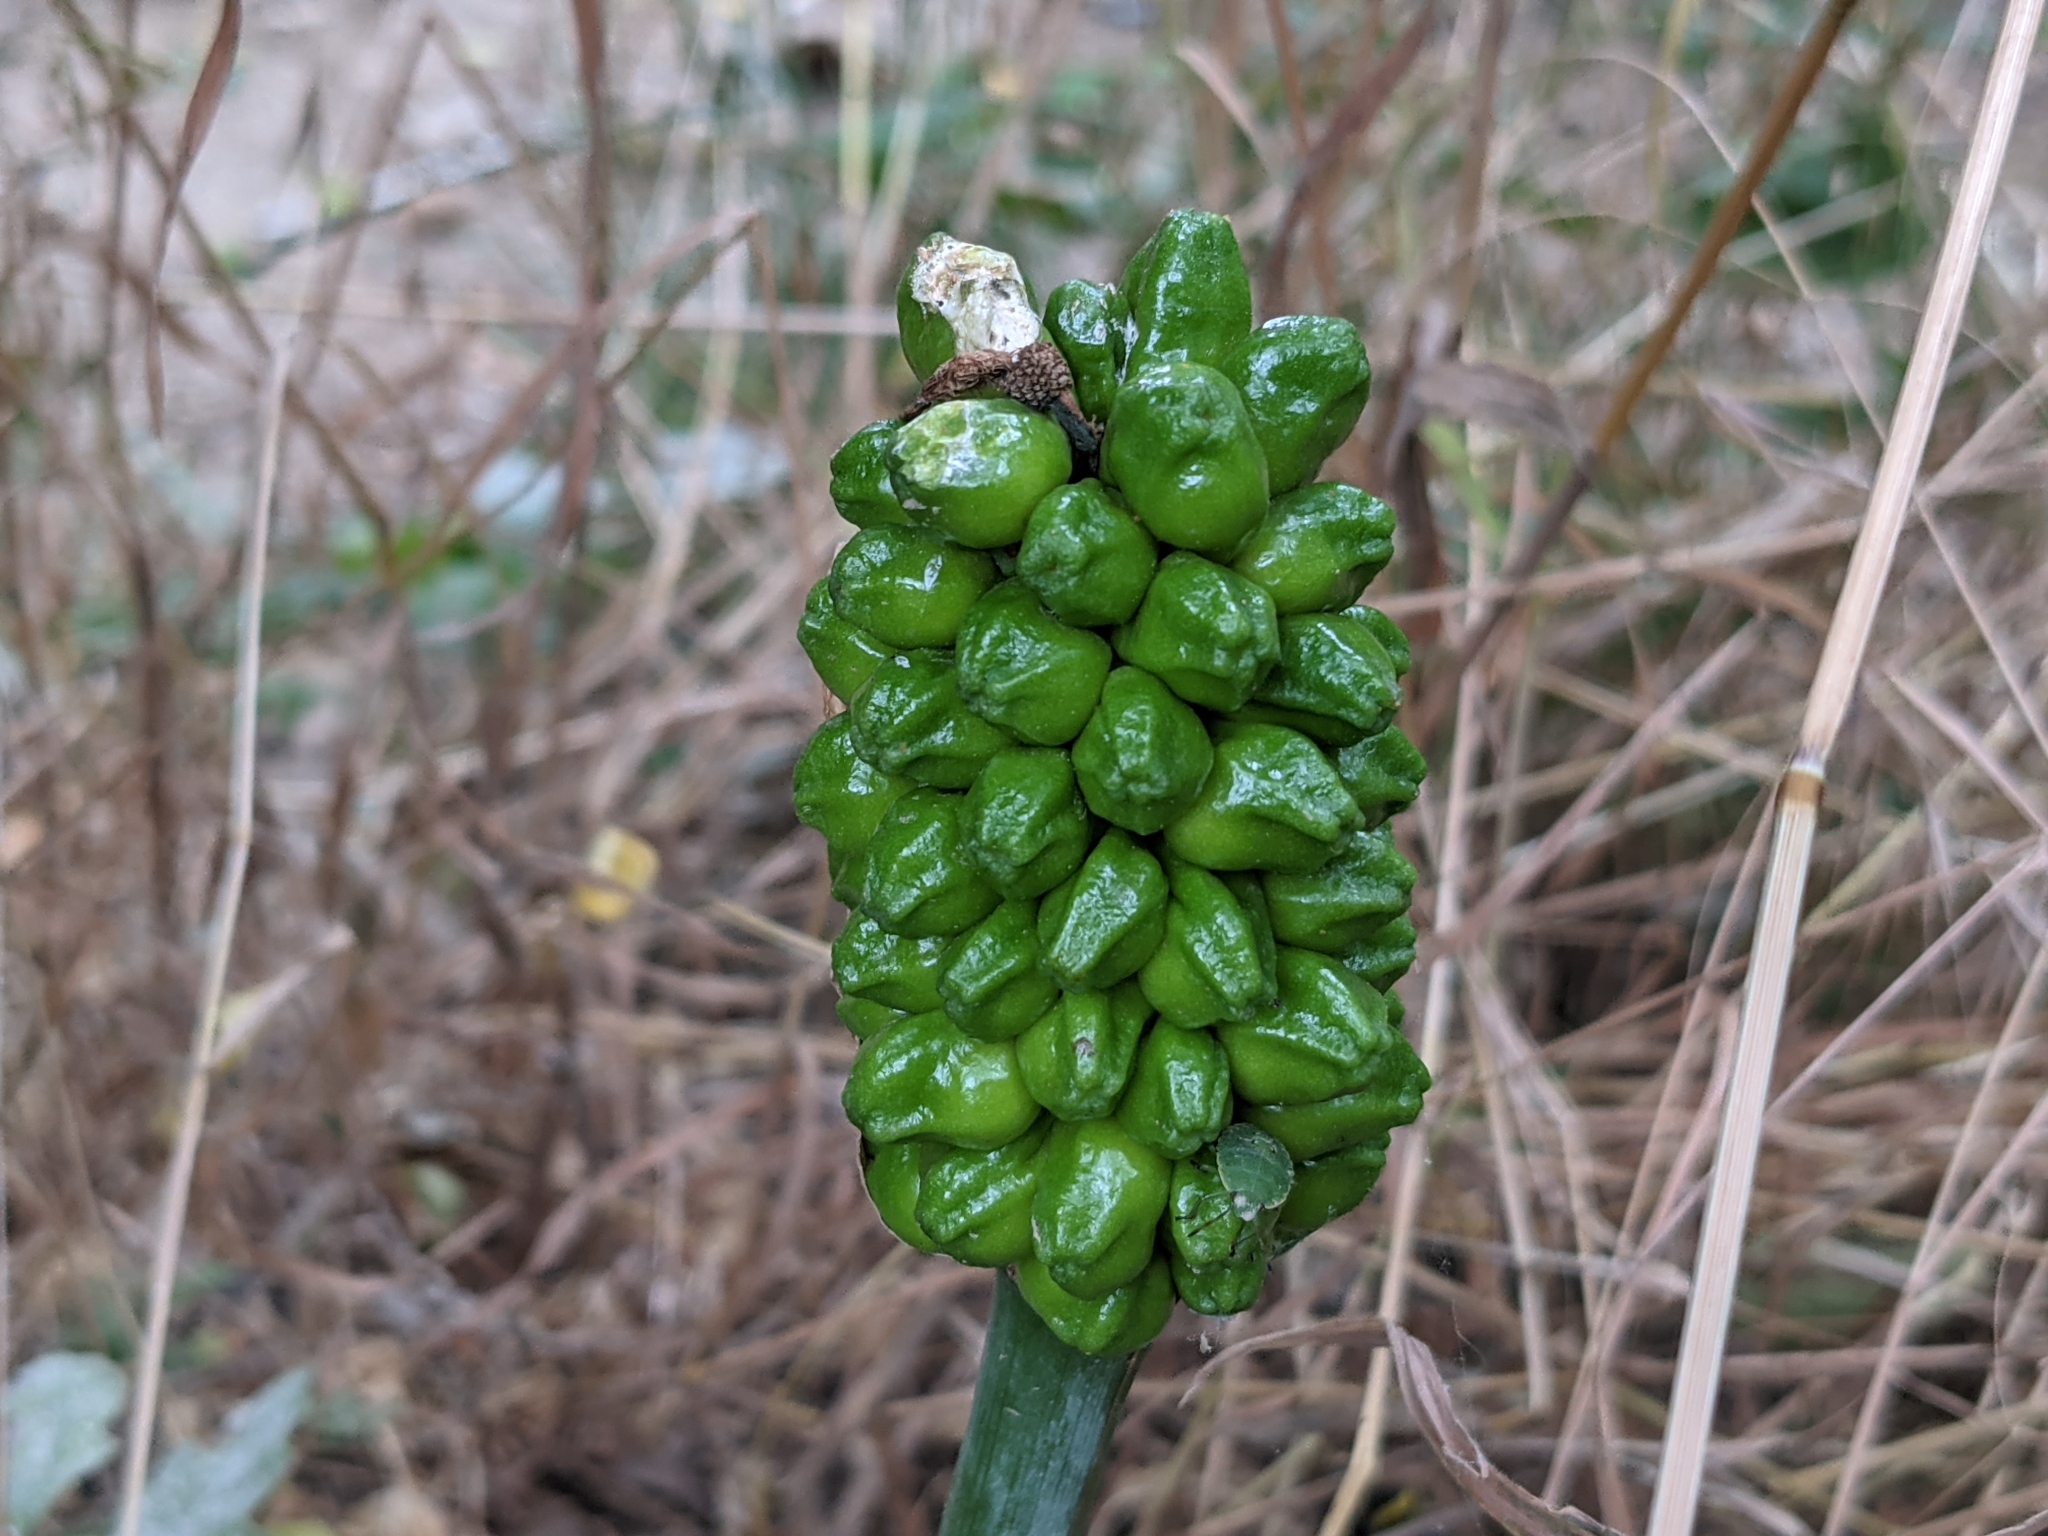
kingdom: Plantae
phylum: Tracheophyta
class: Liliopsida
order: Alismatales
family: Araceae
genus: Arum
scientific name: Arum maculatum
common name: Lords-and-ladies
